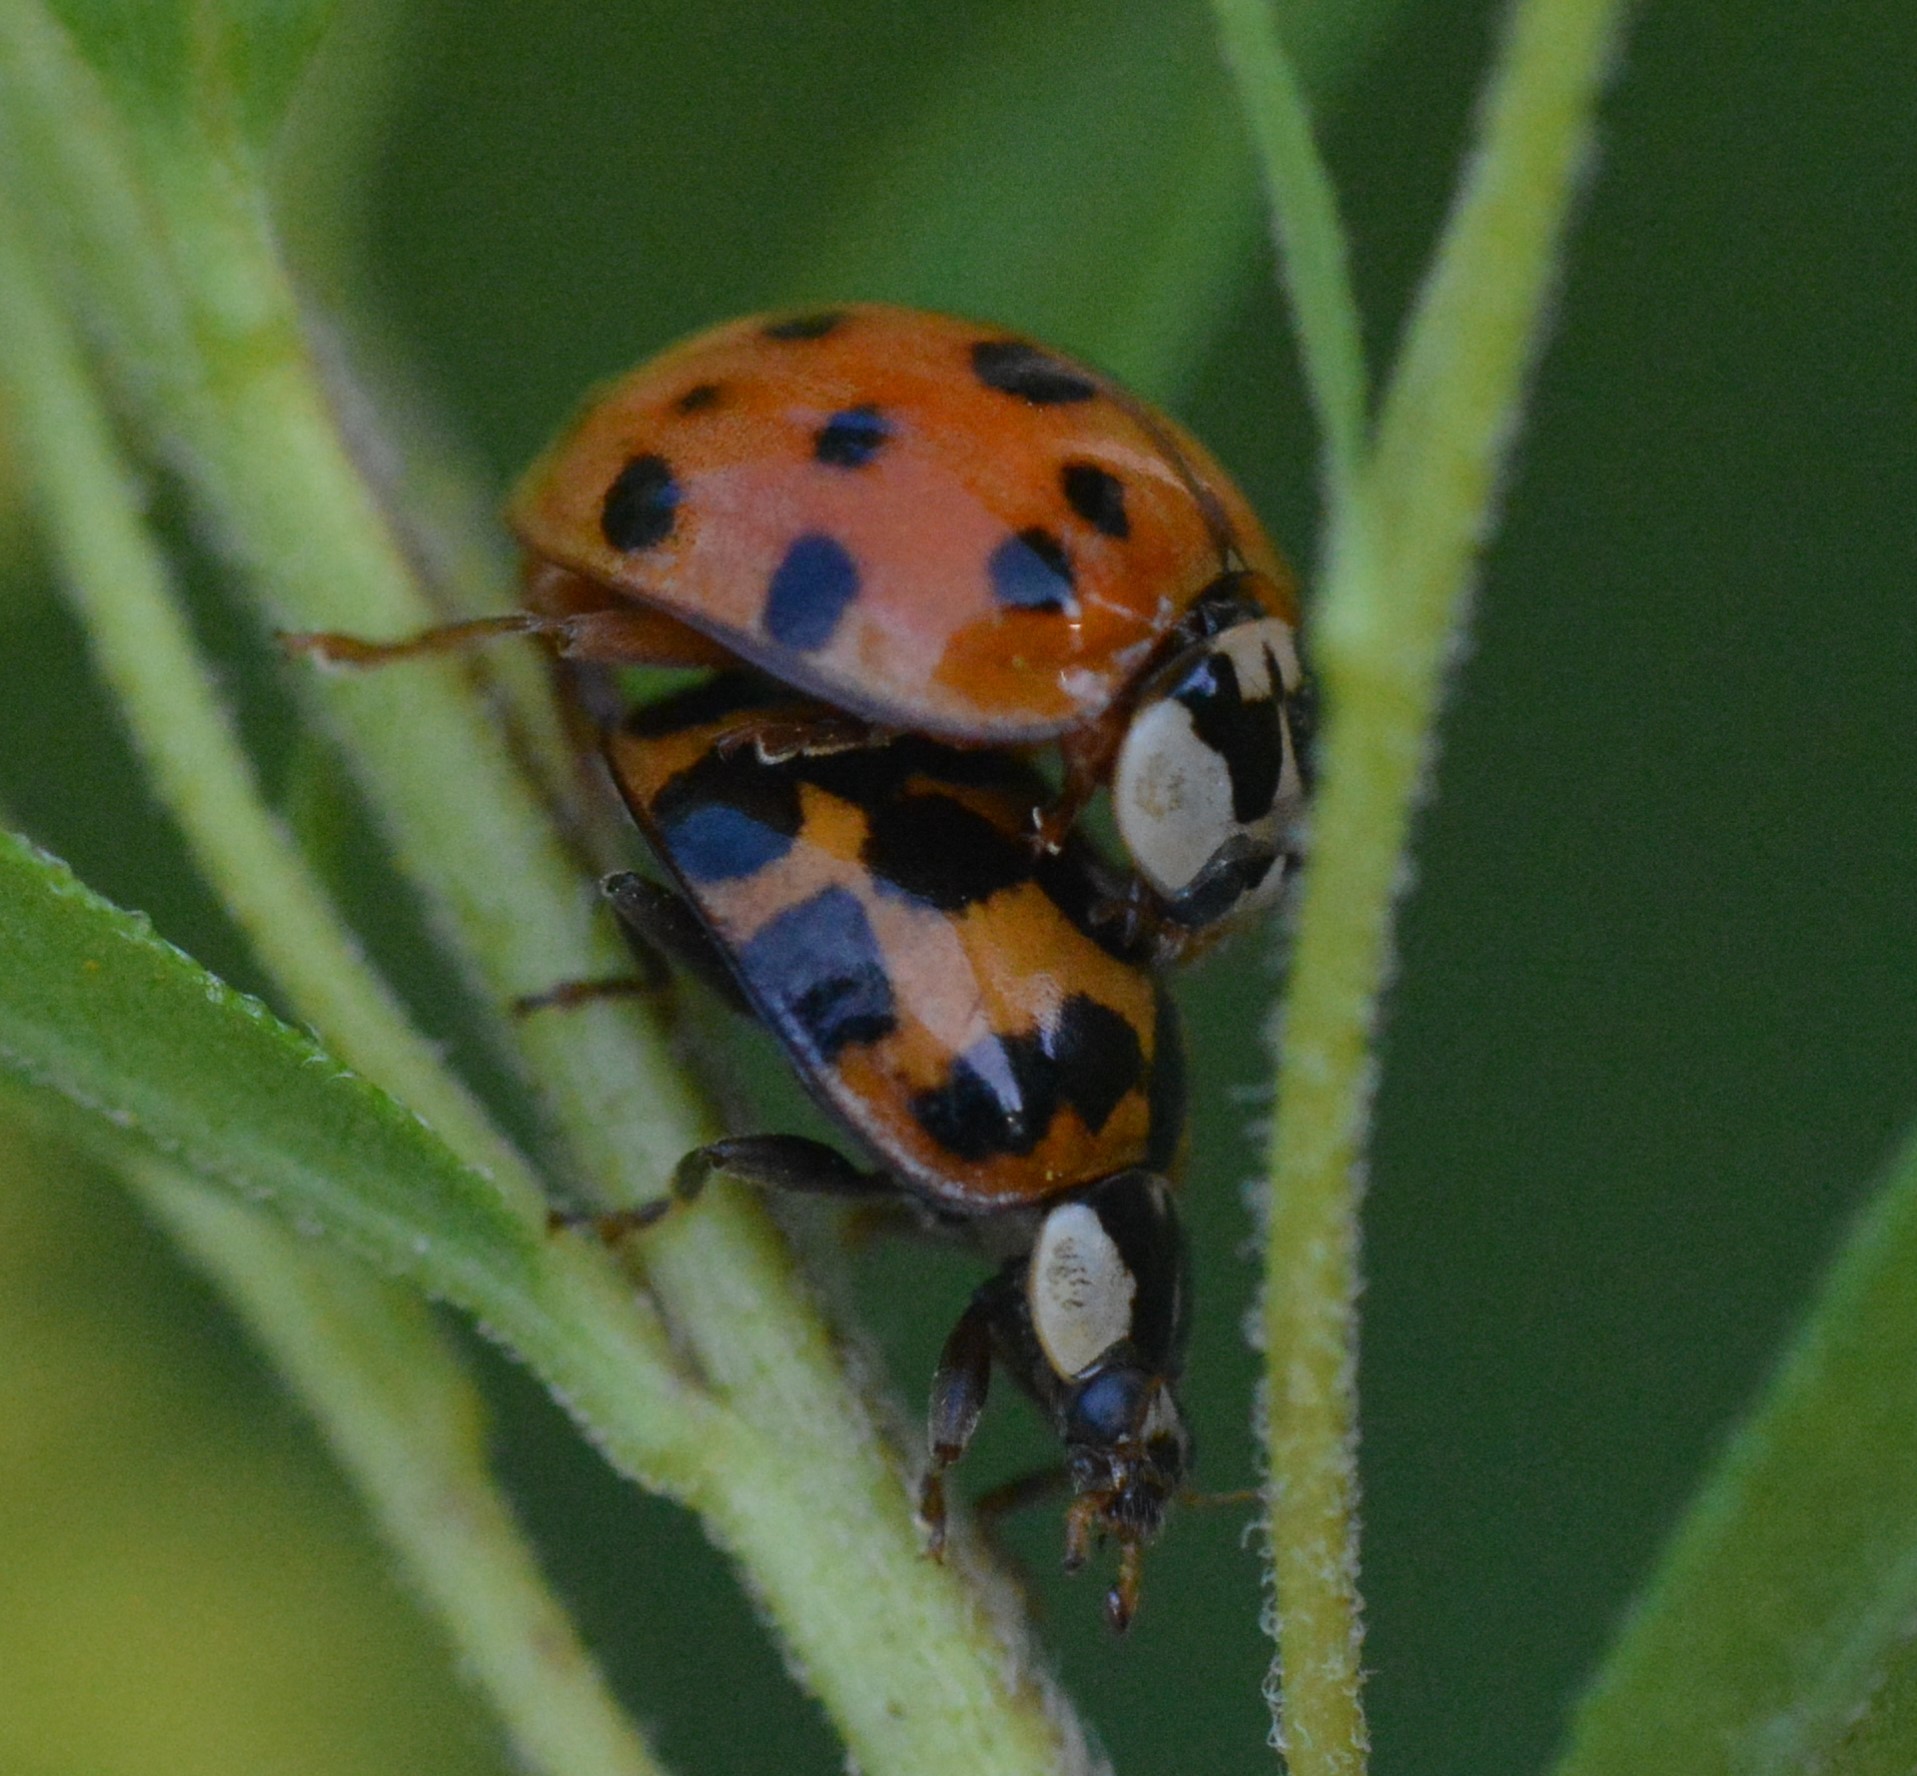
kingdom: Animalia
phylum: Arthropoda
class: Insecta
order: Coleoptera
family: Coccinellidae
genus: Harmonia
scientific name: Harmonia axyridis
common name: Harlequin ladybird
